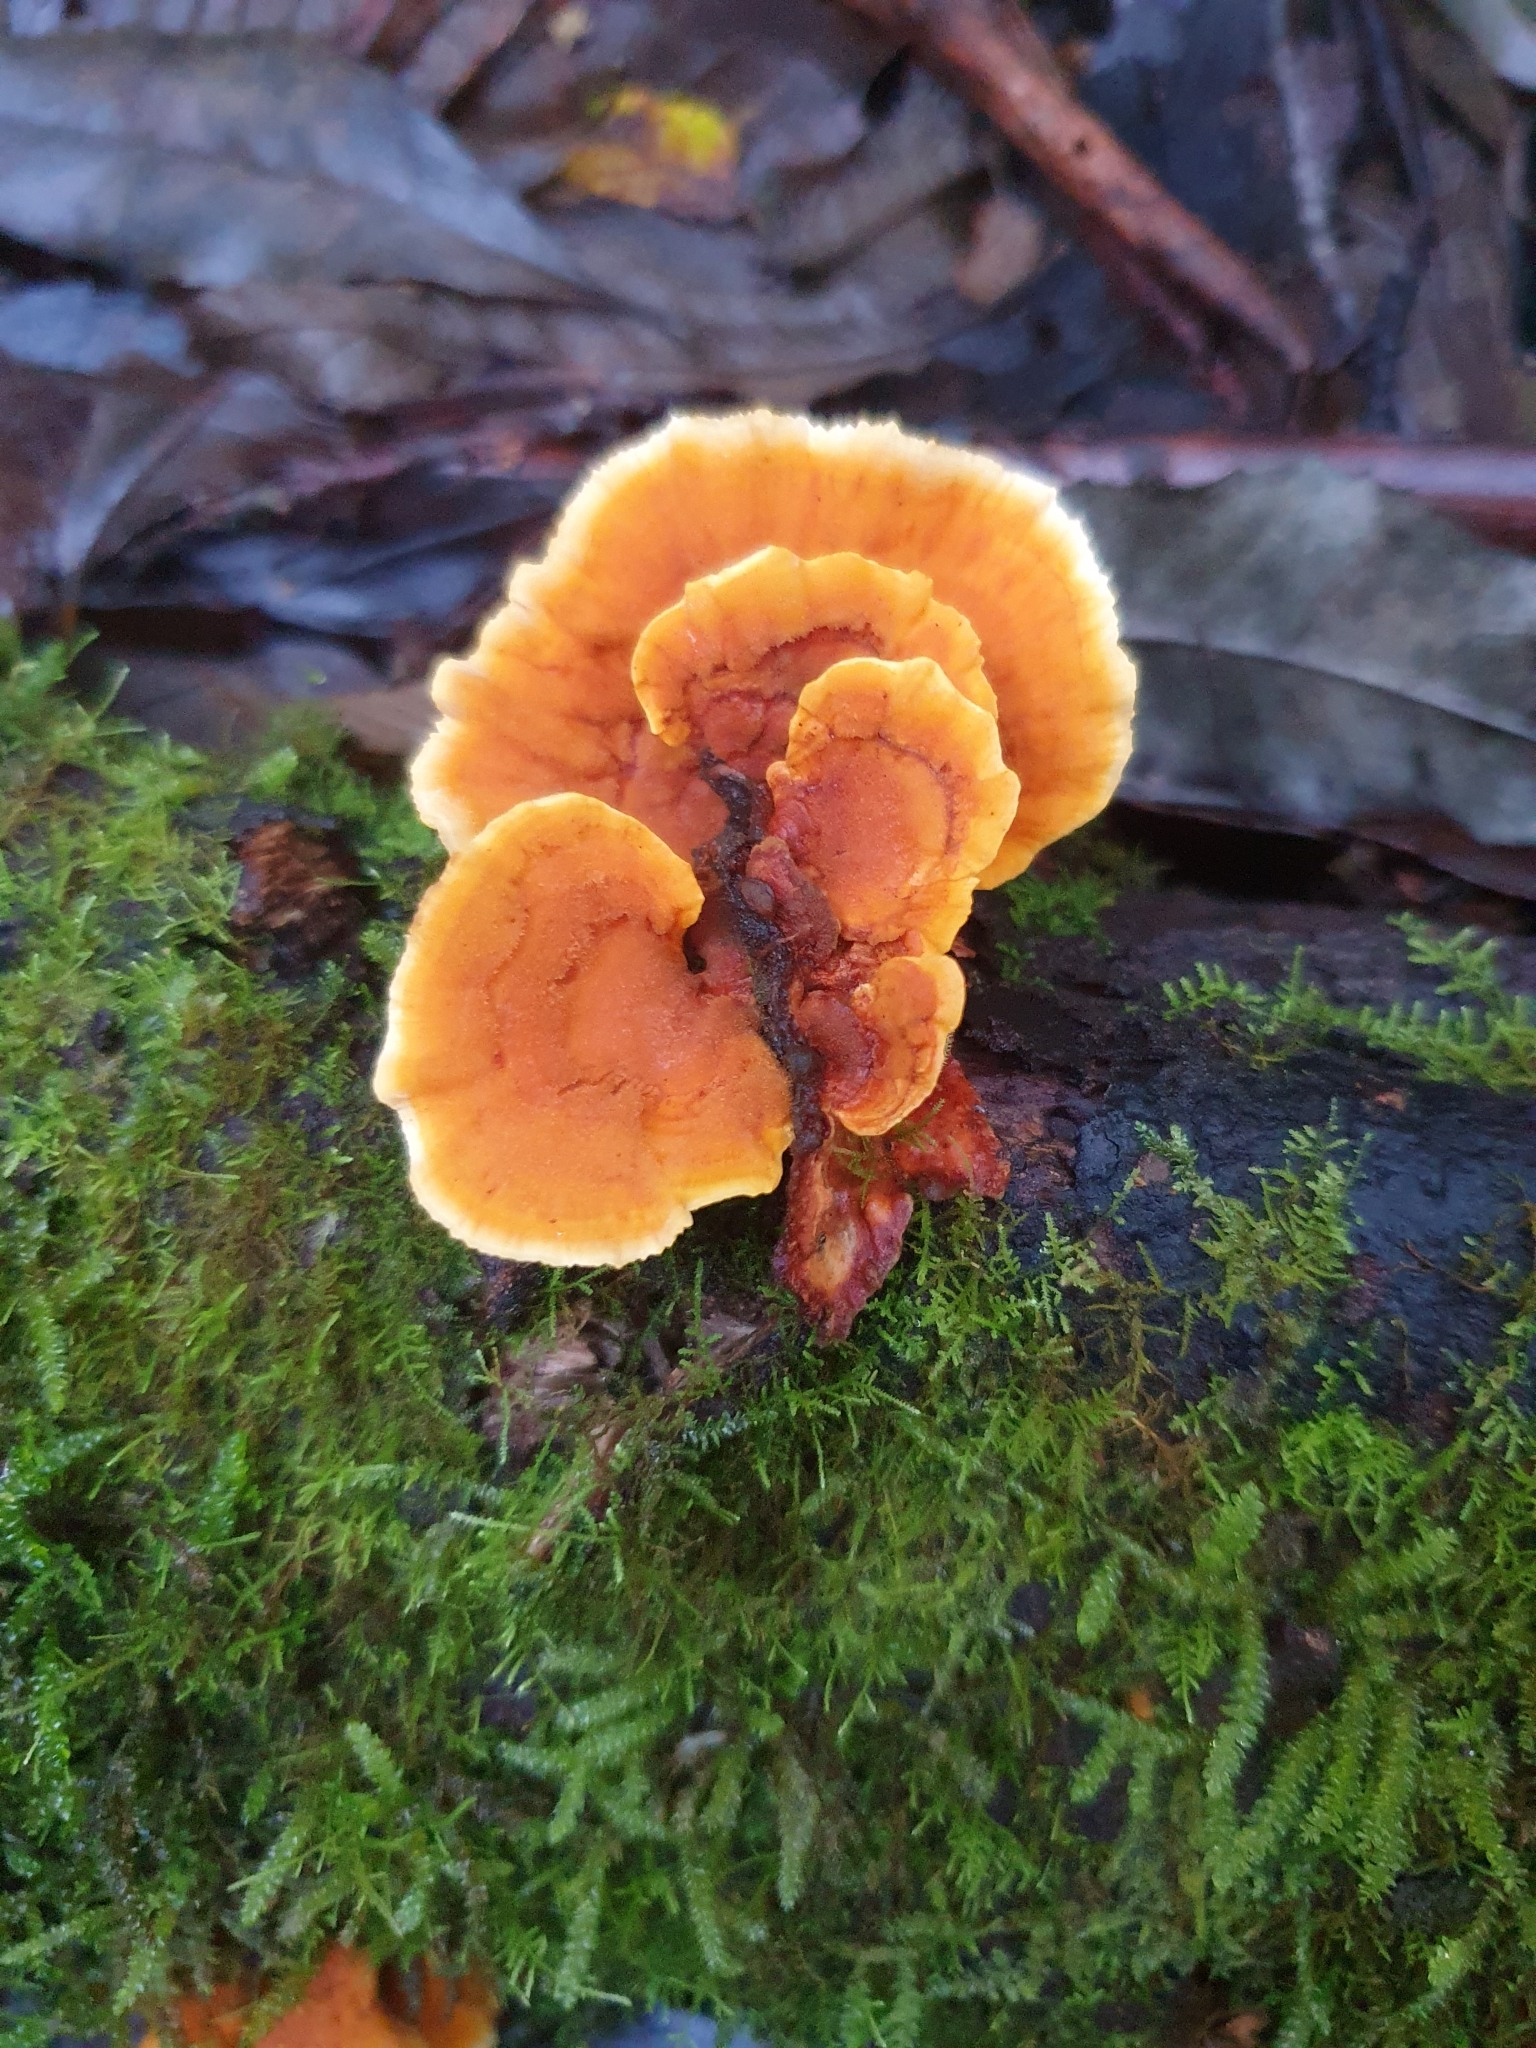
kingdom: Fungi
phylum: Basidiomycota
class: Agaricomycetes
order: Russulales
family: Stereaceae
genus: Stereum
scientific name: Stereum versicolor
